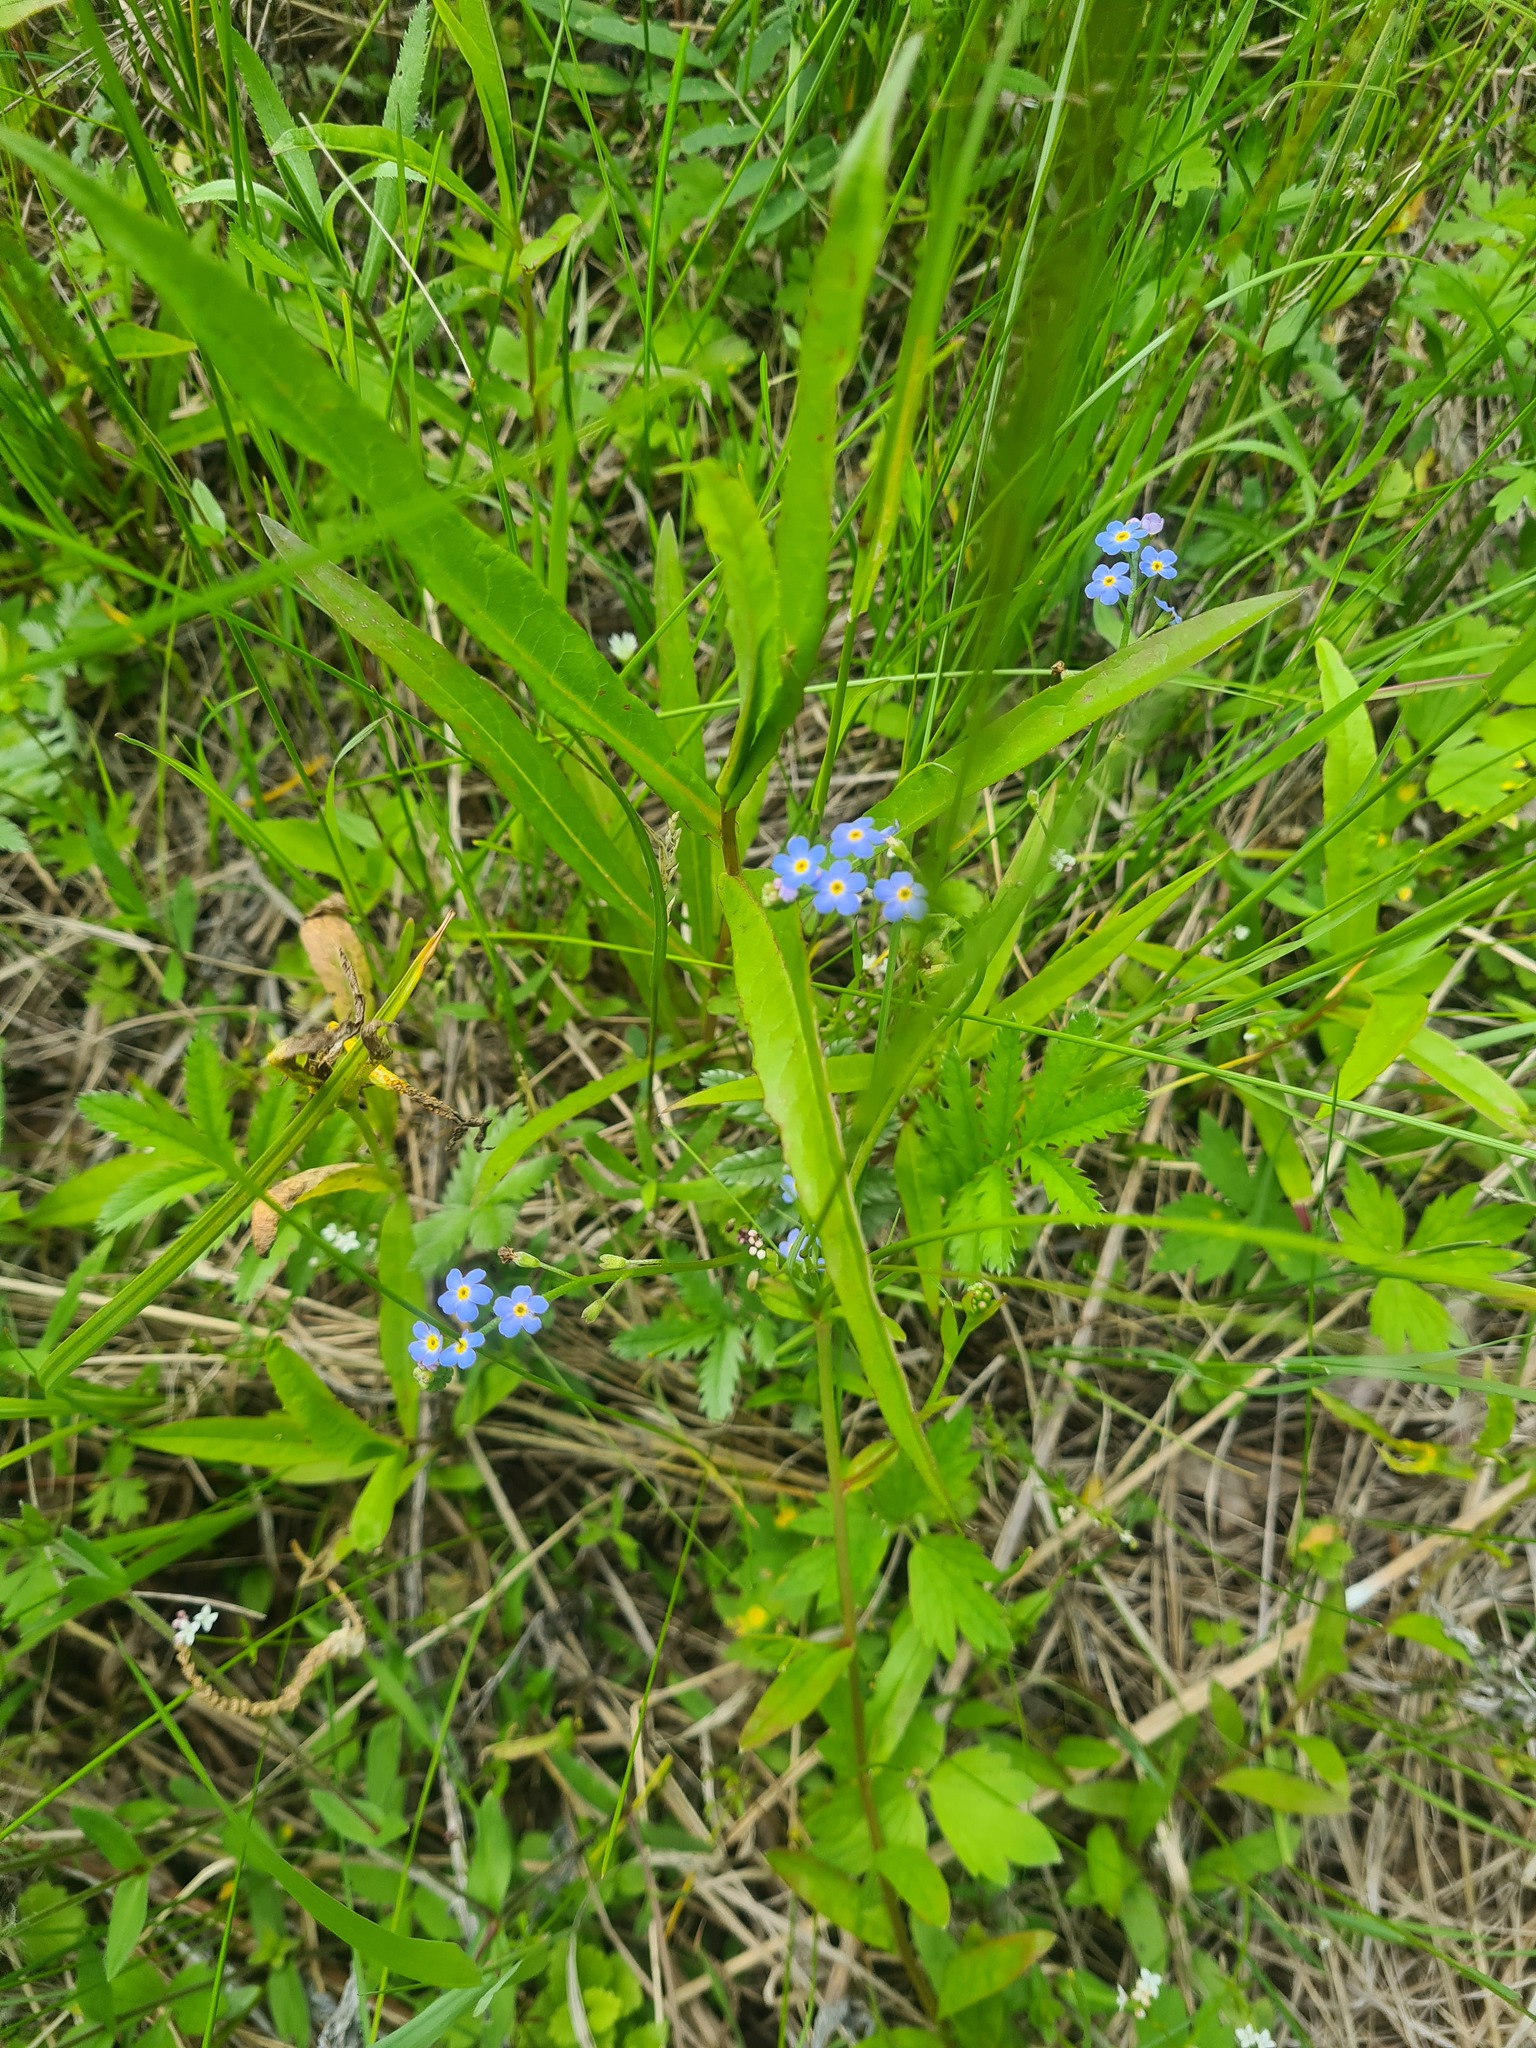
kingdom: Plantae
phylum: Tracheophyta
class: Magnoliopsida
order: Boraginales
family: Boraginaceae
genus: Myosotis
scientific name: Myosotis scorpioides
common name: Water forget-me-not
